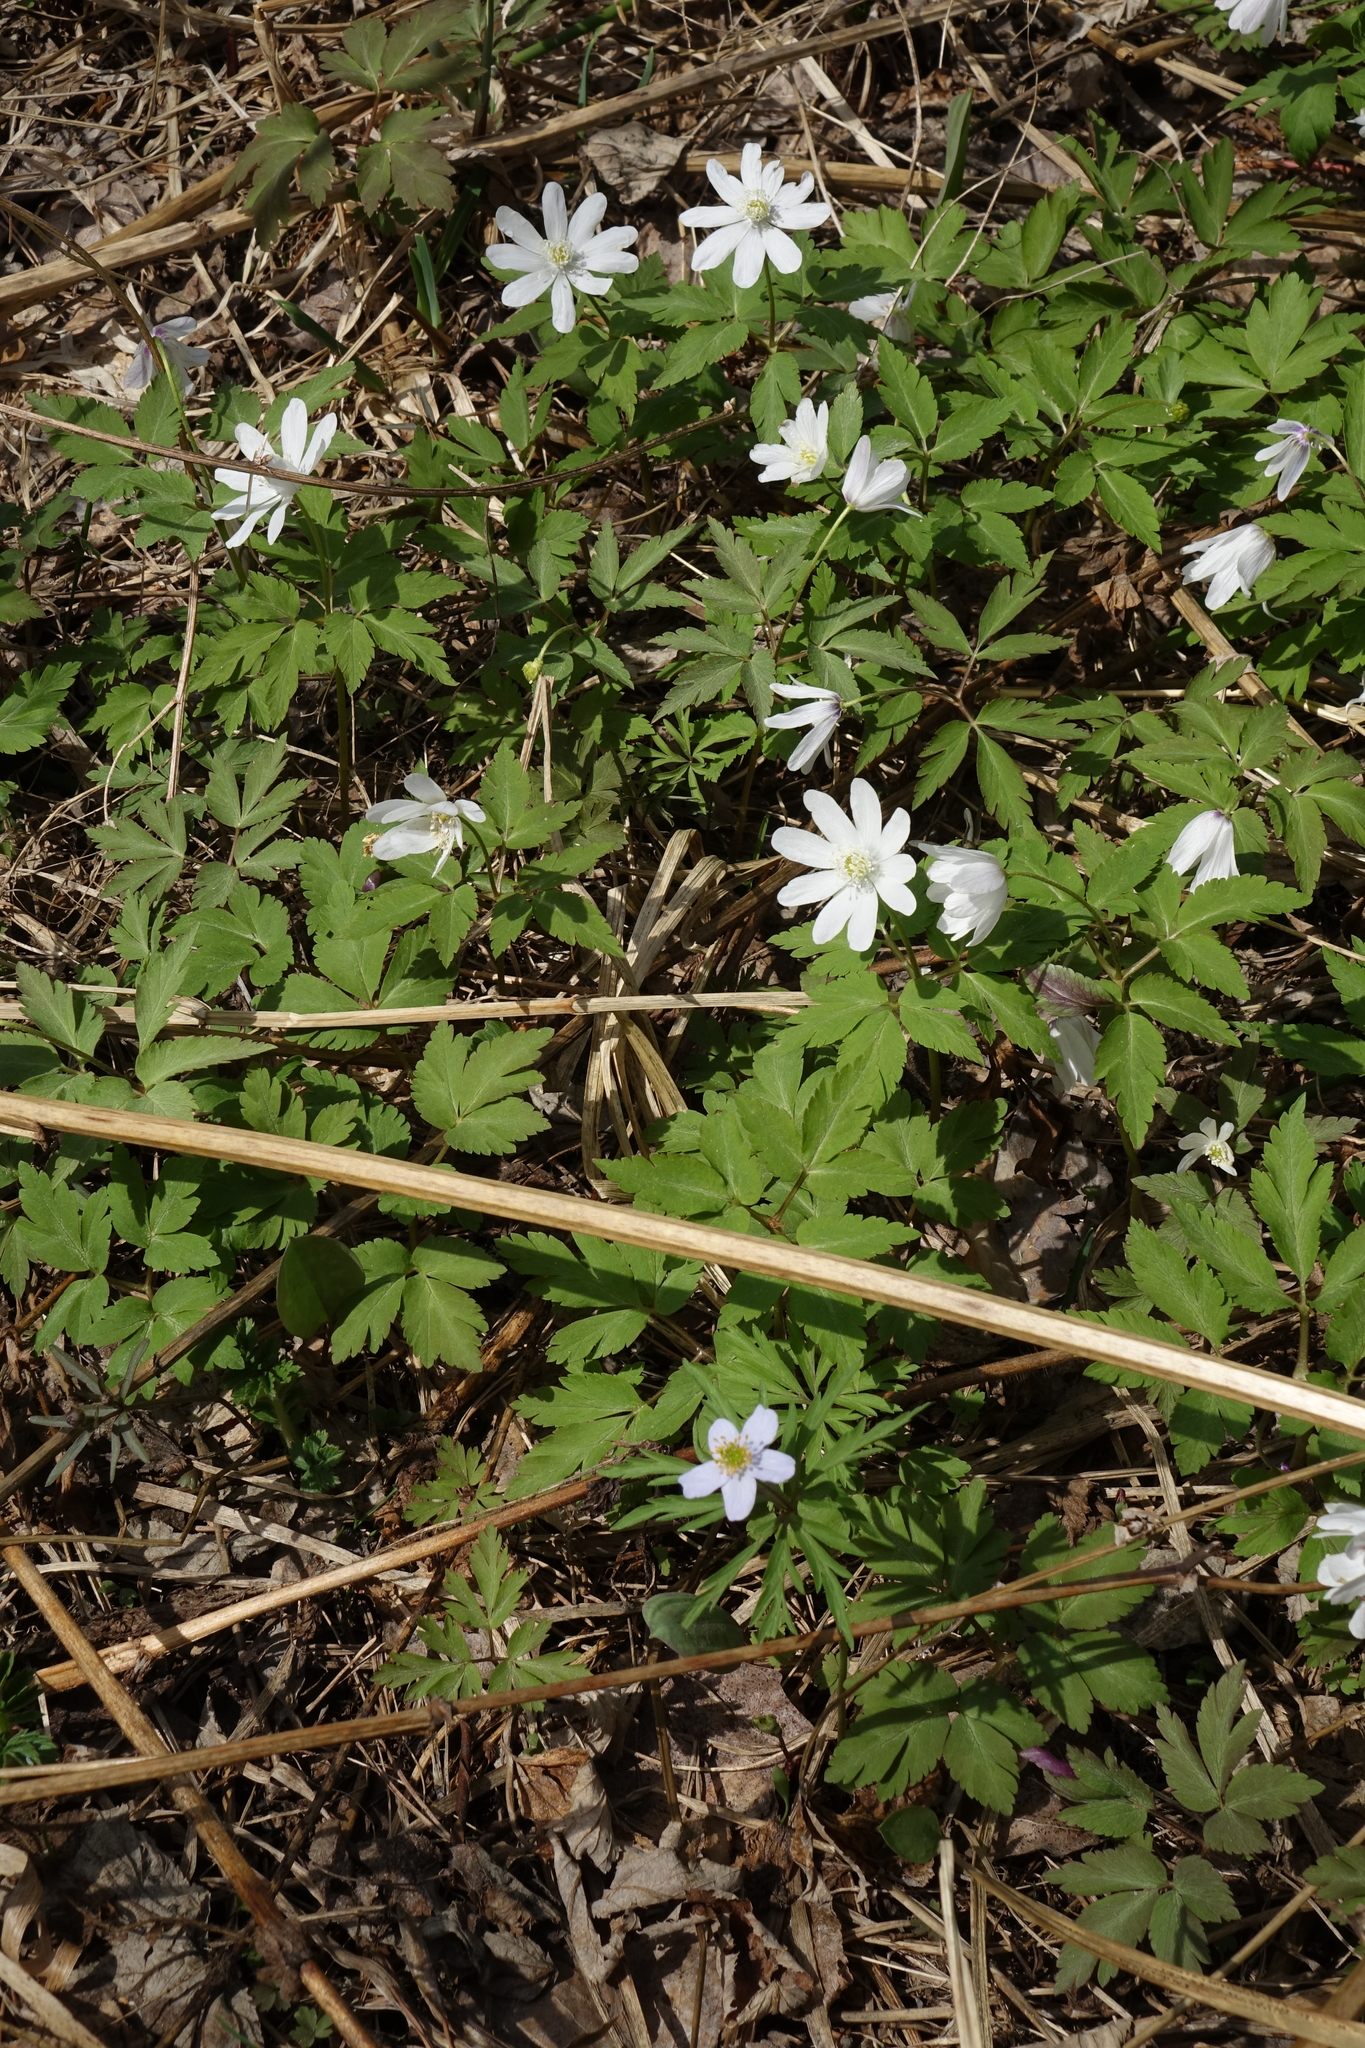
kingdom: Plantae
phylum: Tracheophyta
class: Magnoliopsida
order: Ranunculales
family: Ranunculaceae
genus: Anemone
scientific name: Anemone altaica
